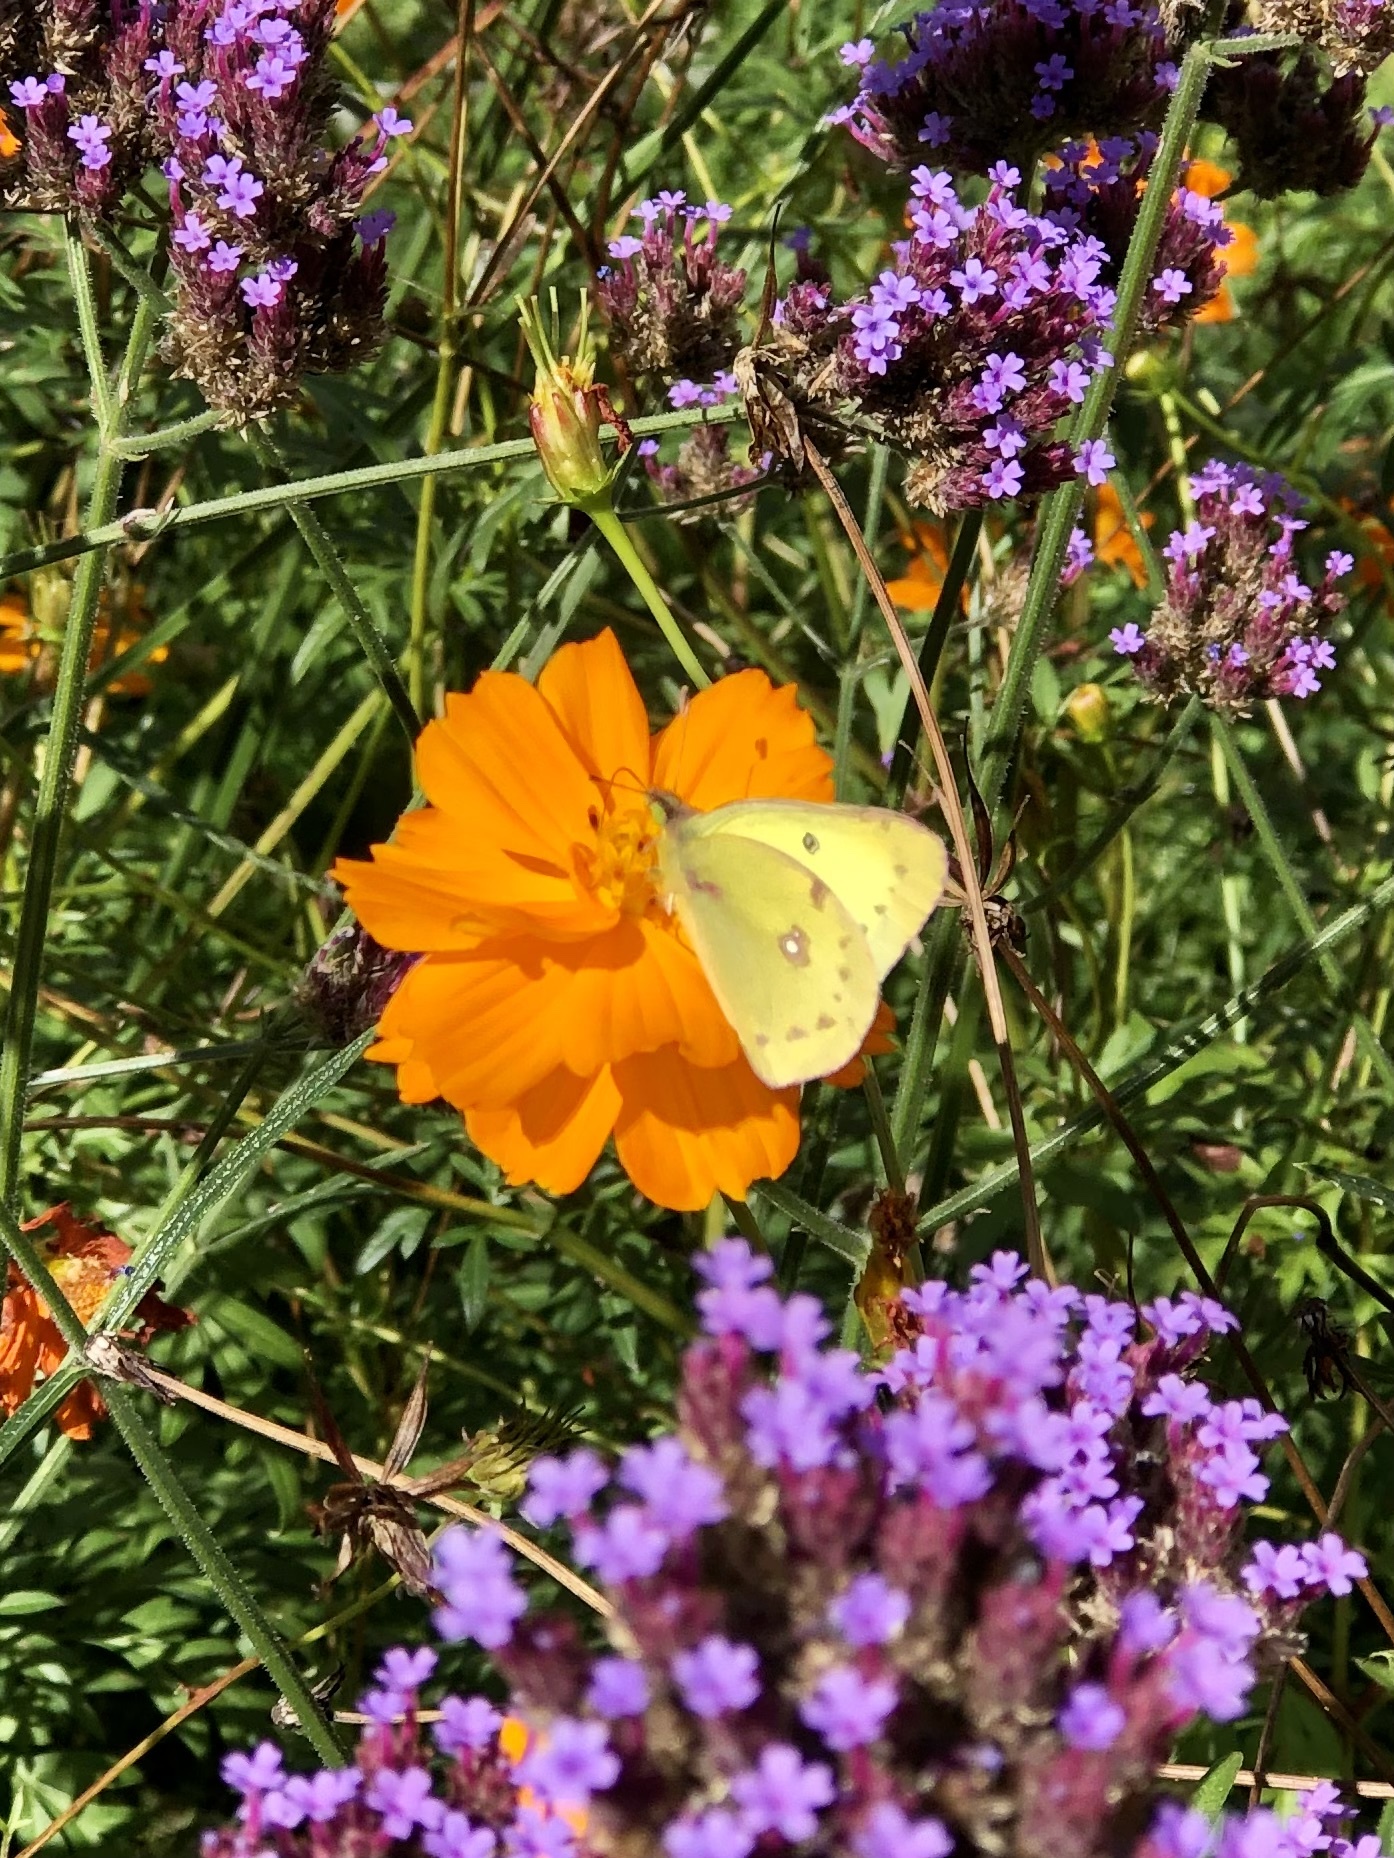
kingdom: Animalia
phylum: Arthropoda
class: Insecta
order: Lepidoptera
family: Pieridae
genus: Colias
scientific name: Colias philodice
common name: Clouded sulphur
